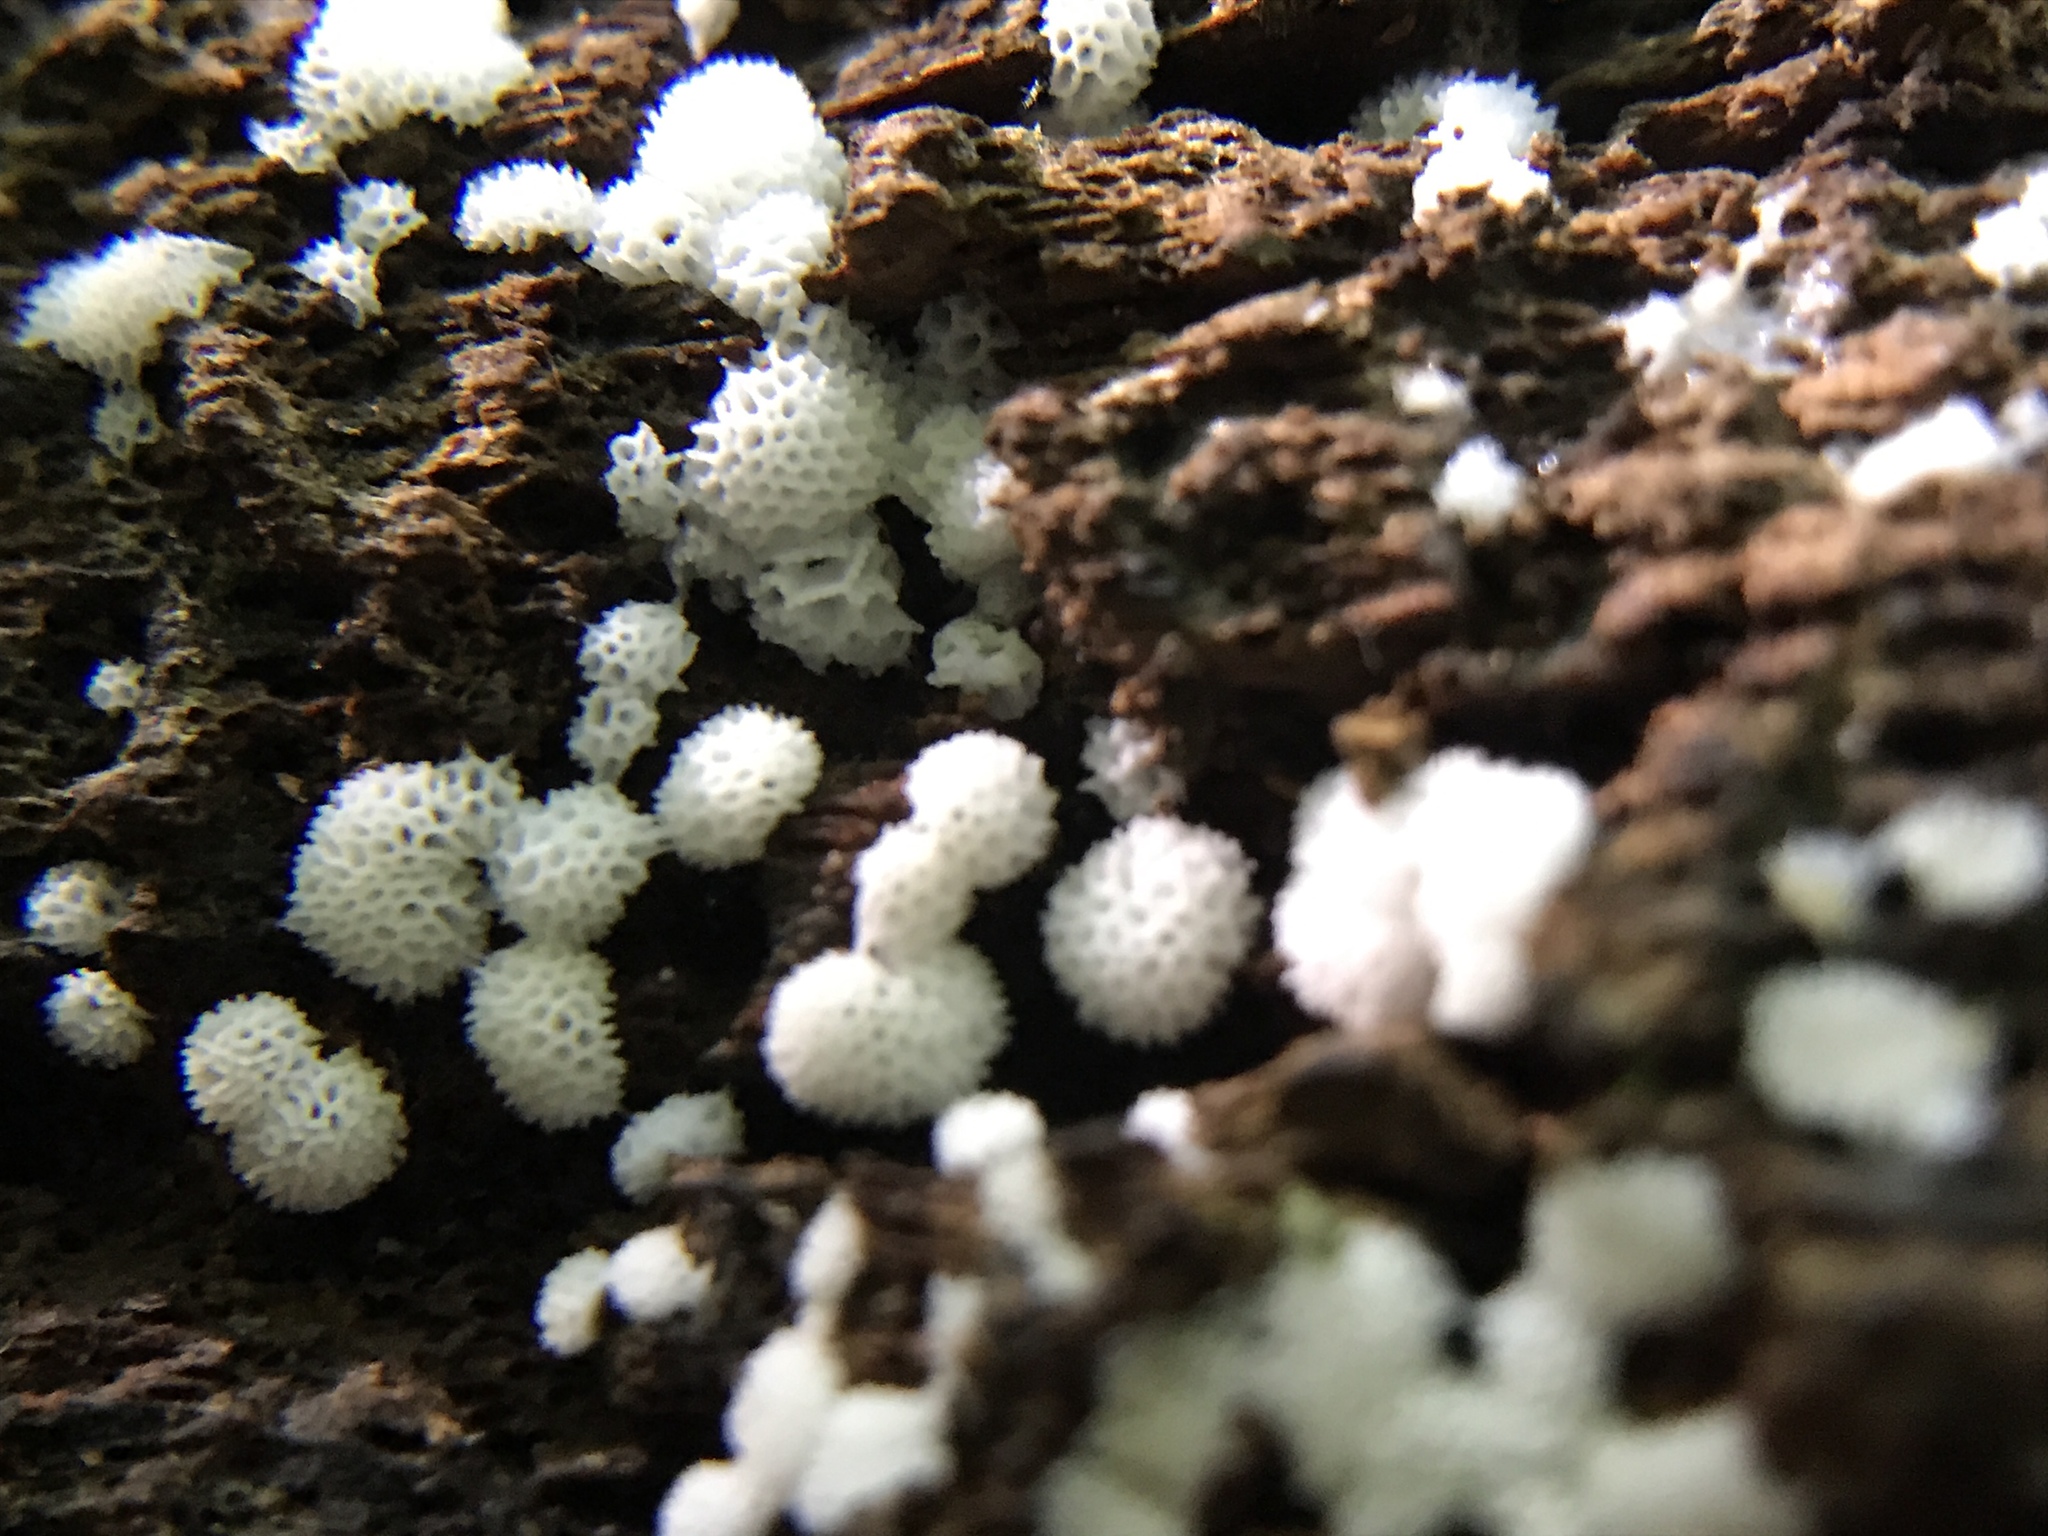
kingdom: Protozoa
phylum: Mycetozoa
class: Protosteliomycetes
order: Ceratiomyxales
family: Ceratiomyxaceae
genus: Ceratiomyxa
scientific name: Ceratiomyxa fruticulosa
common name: Honeycomb coral slime mold
